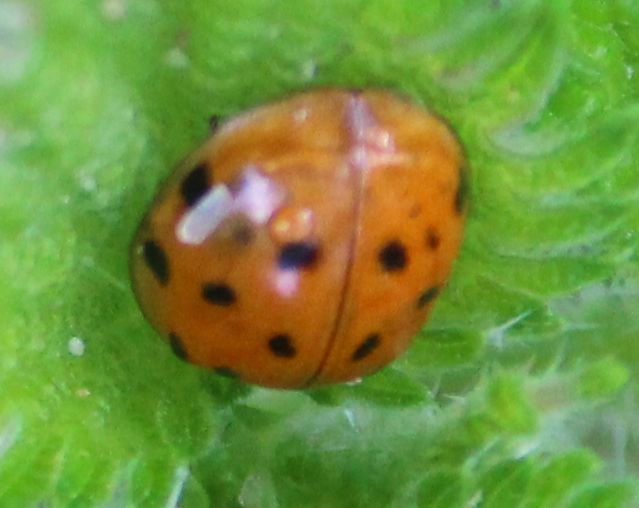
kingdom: Animalia
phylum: Arthropoda
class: Insecta
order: Coleoptera
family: Coccinellidae
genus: Harmonia
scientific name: Harmonia axyridis
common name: Harlequin ladybird
